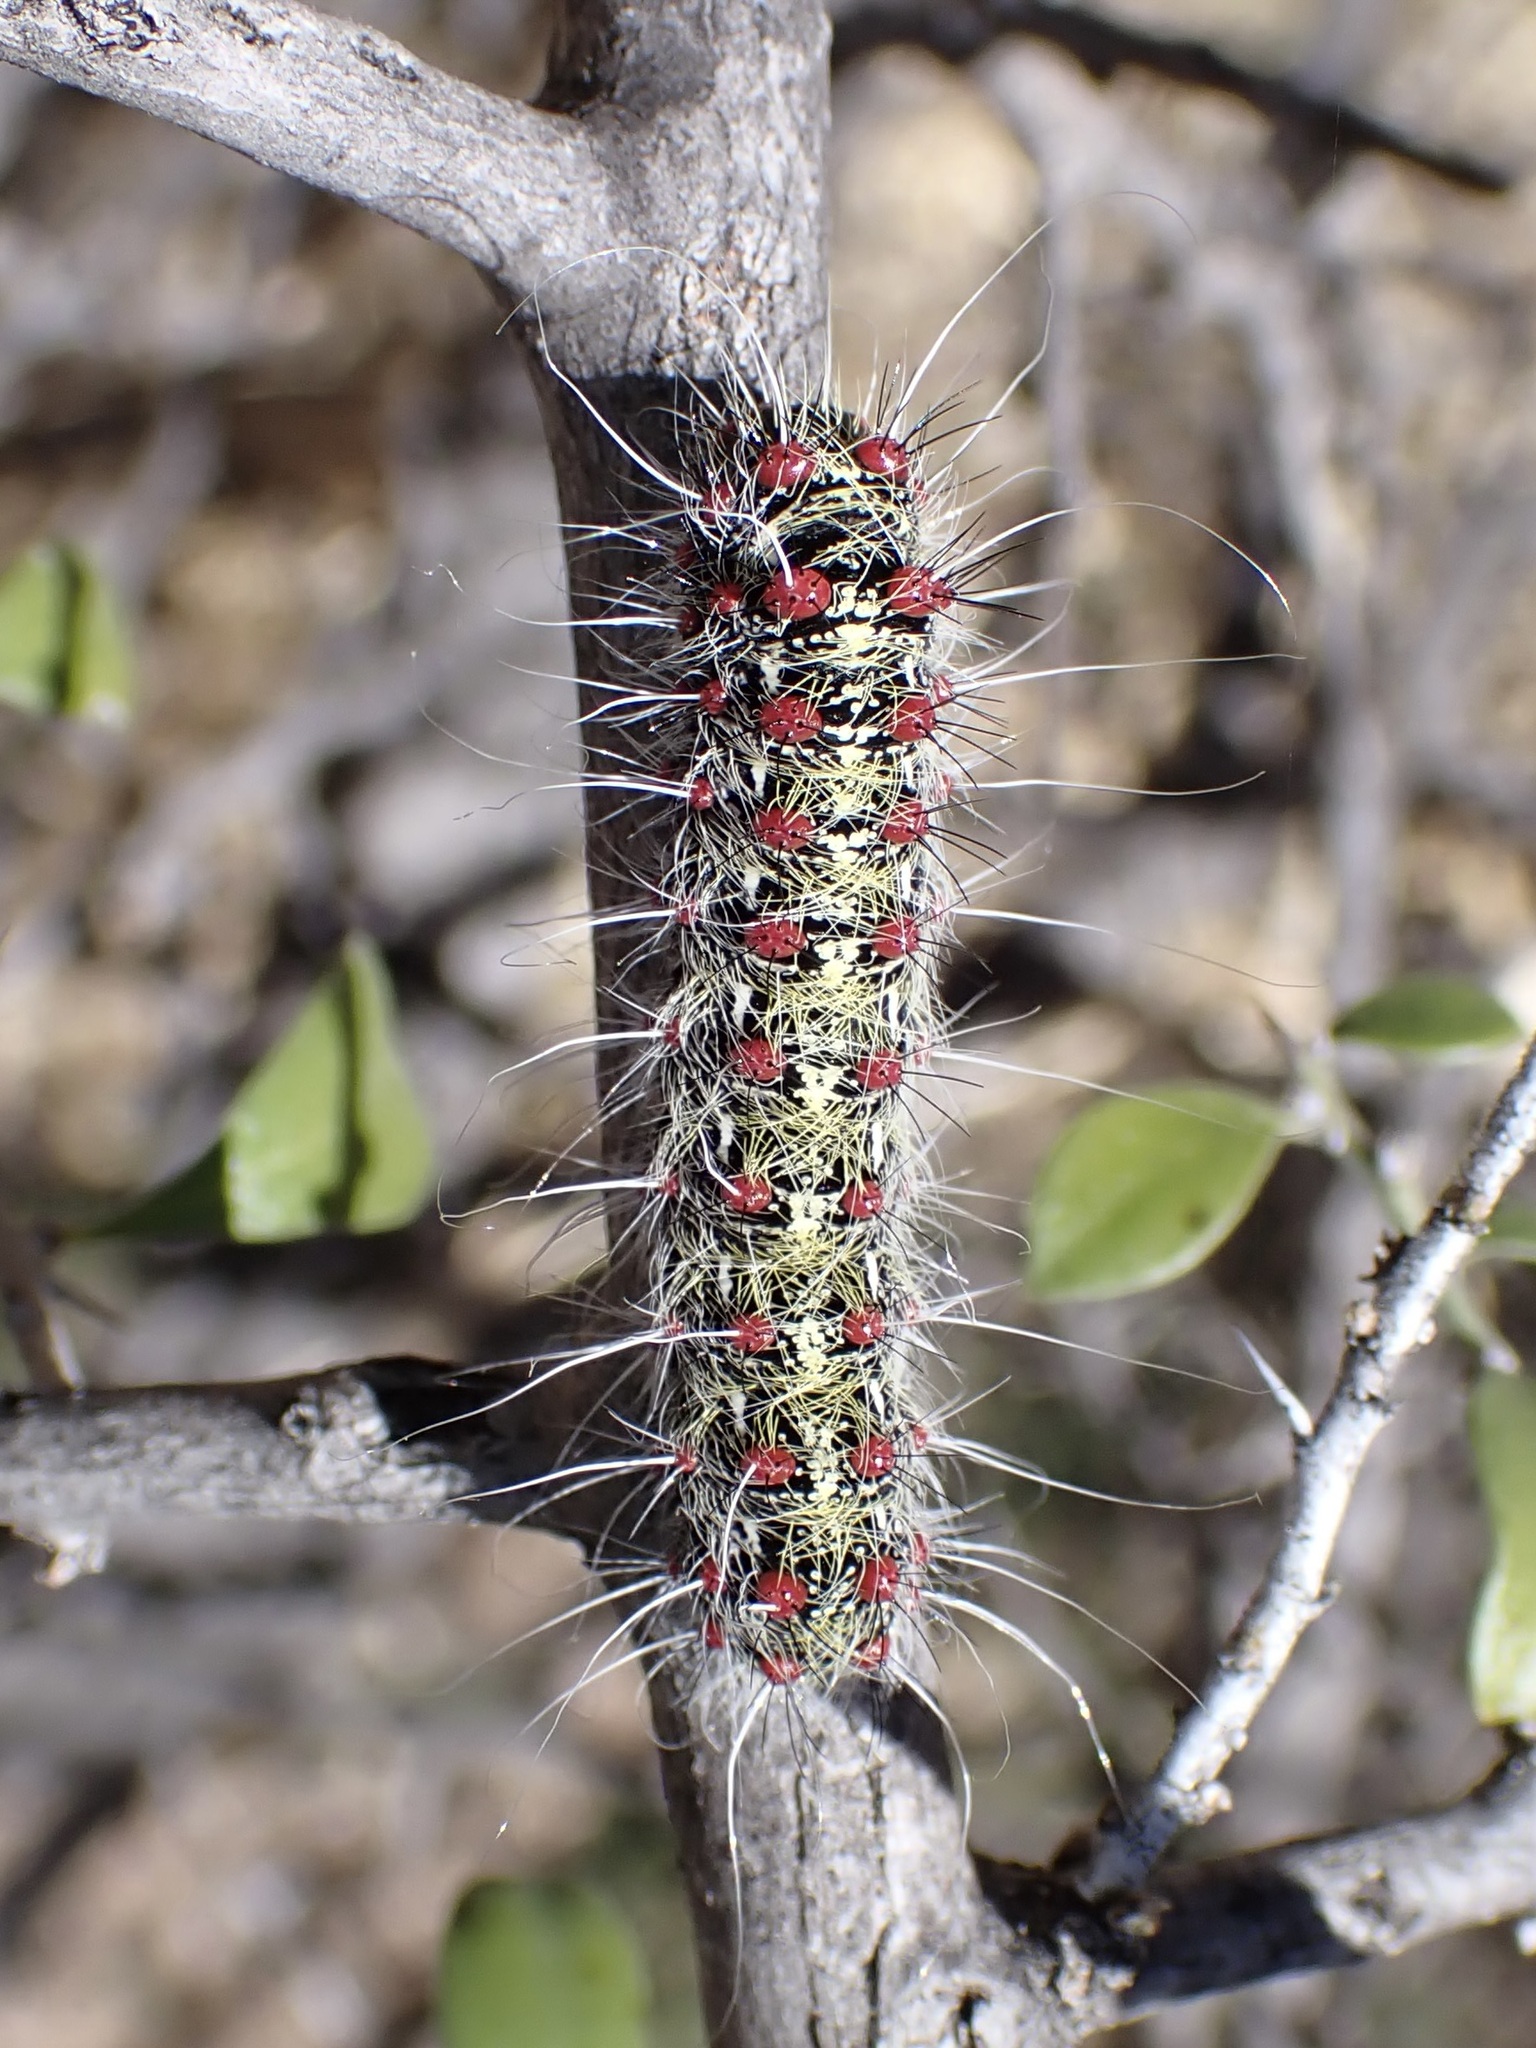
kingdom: Animalia
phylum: Arthropoda
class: Insecta
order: Lepidoptera
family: Saturniidae
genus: Saturnia
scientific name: Saturnia anona
